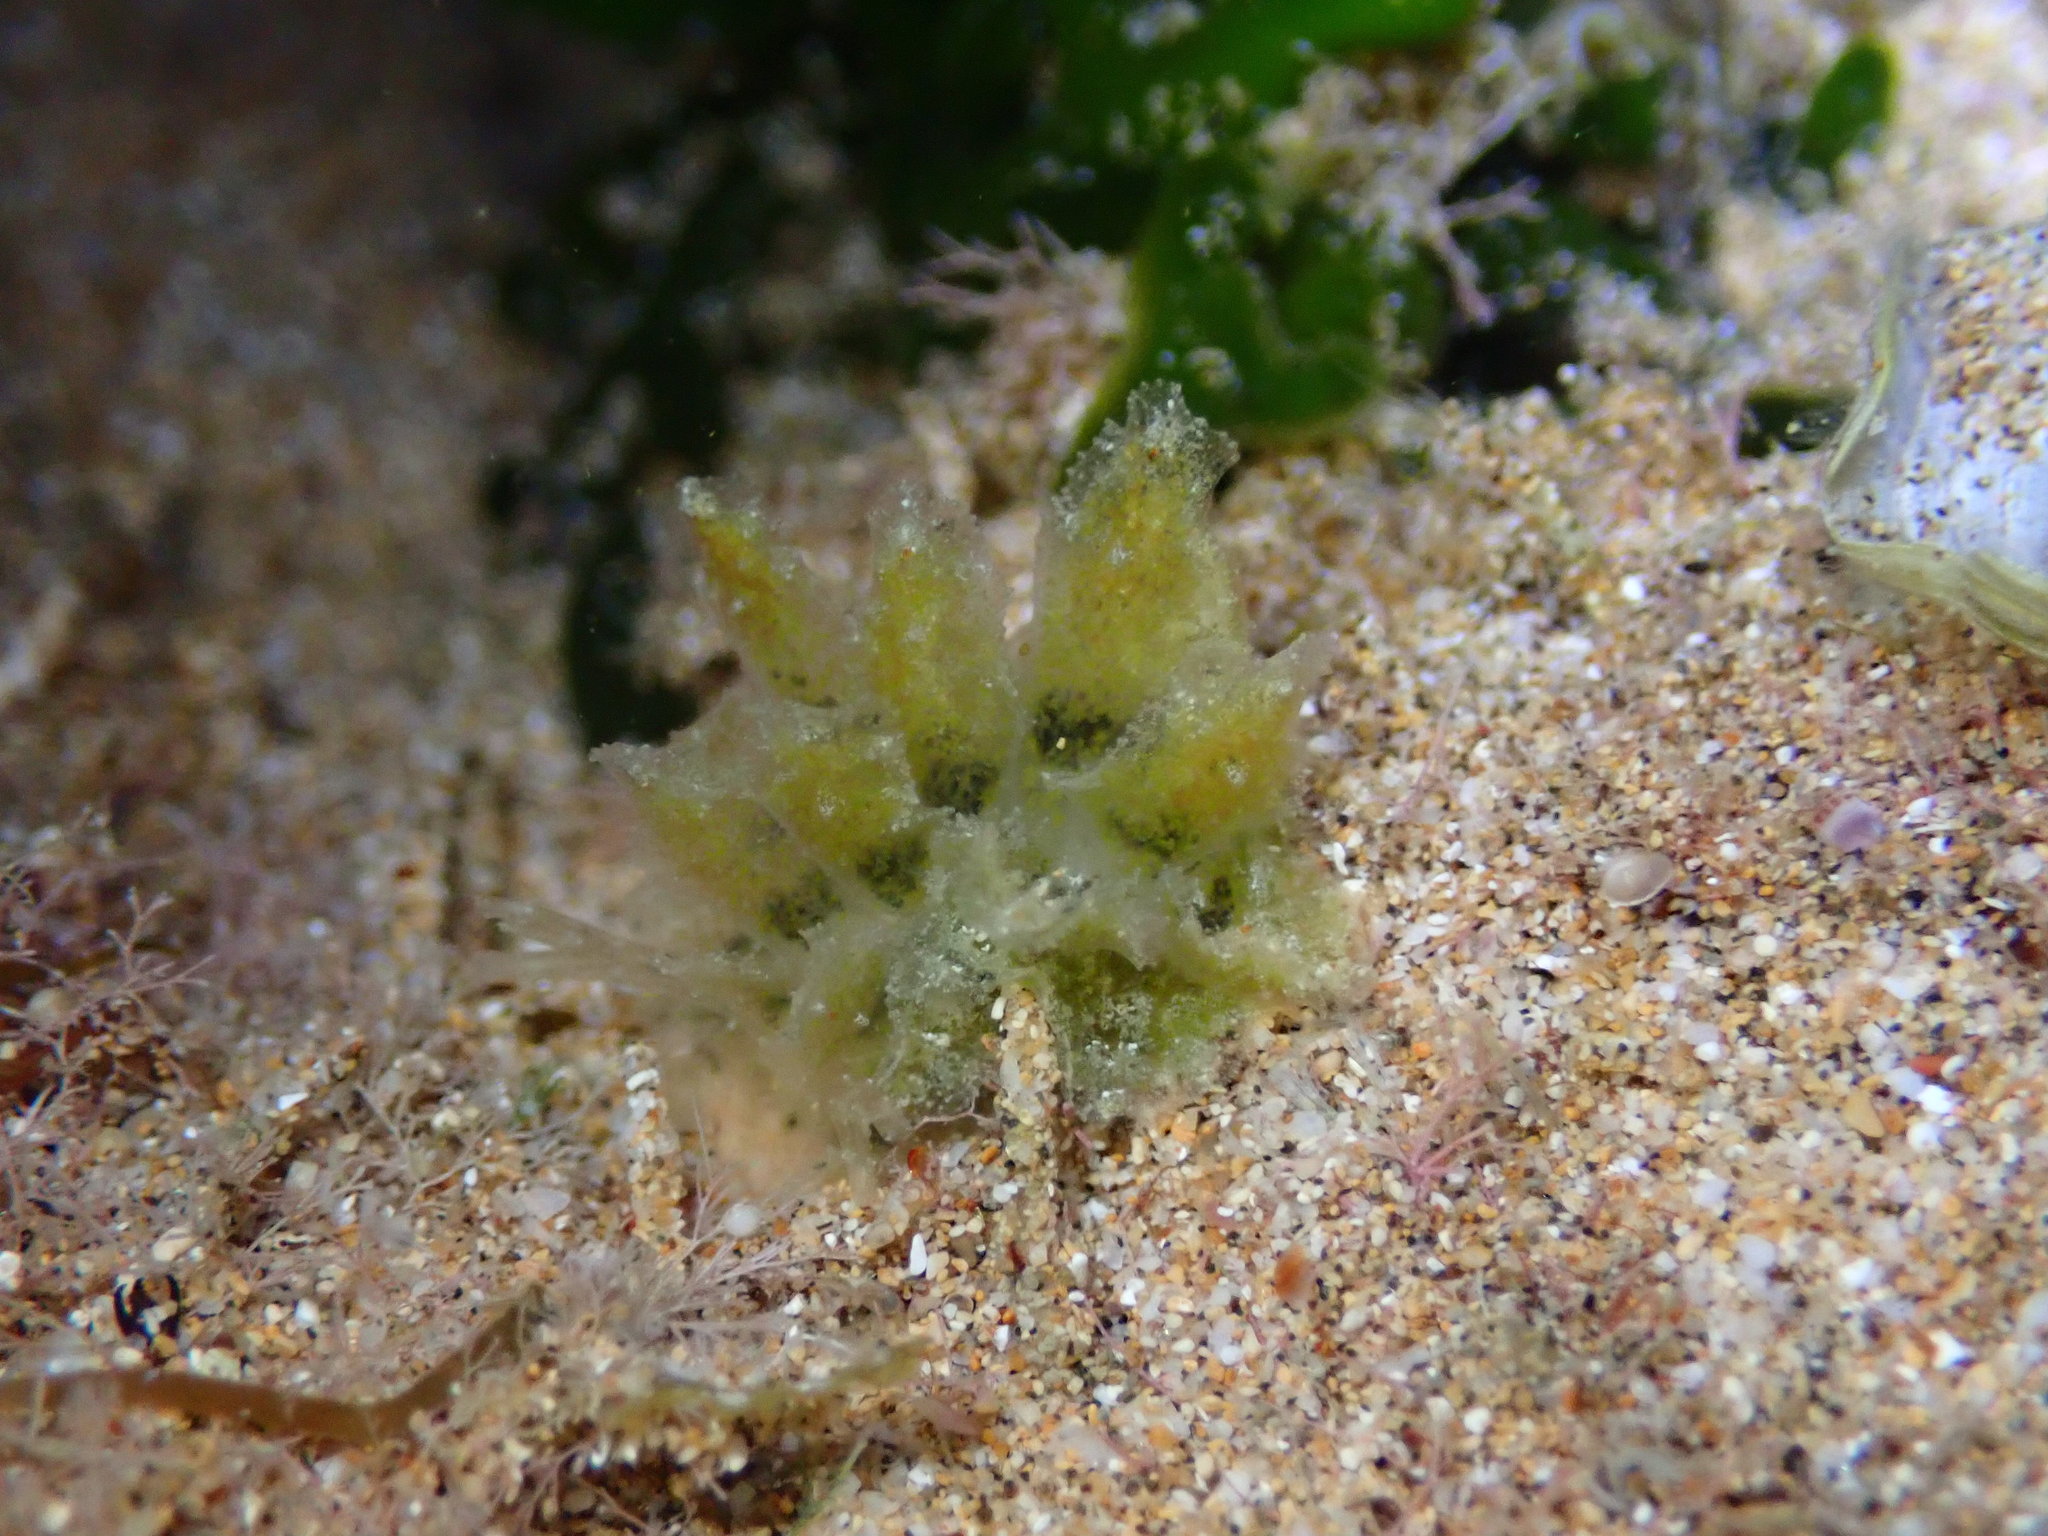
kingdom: Animalia
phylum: Mollusca
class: Gastropoda
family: Hermaeidae
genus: Polybranchia
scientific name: Polybranchia jensenae
